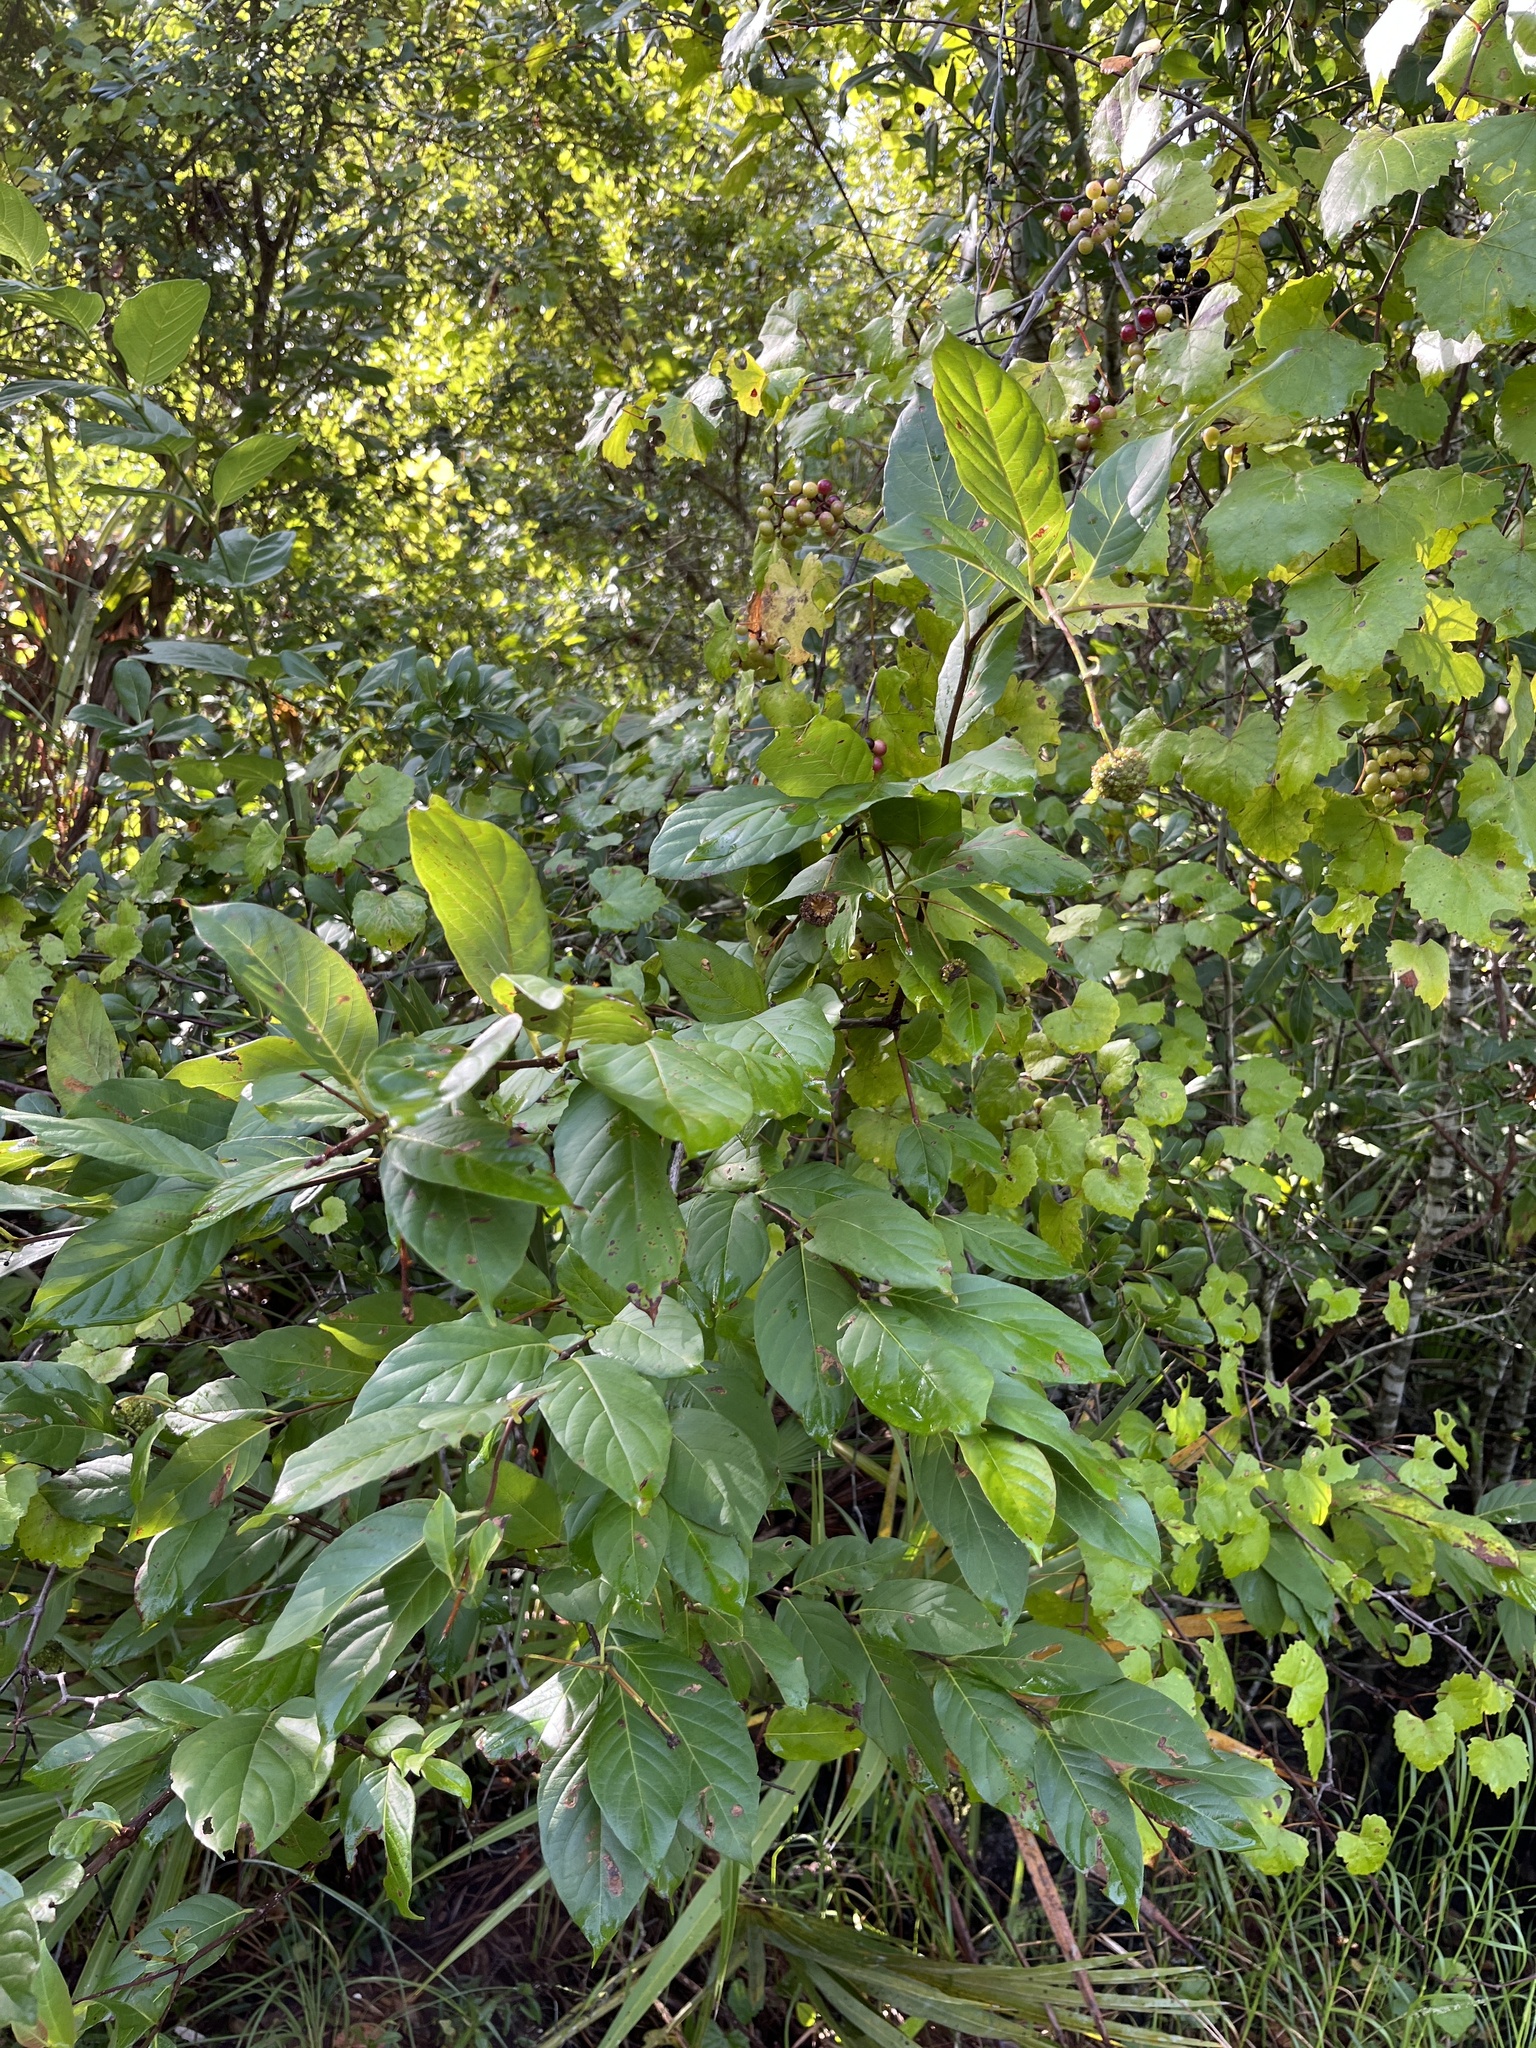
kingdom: Plantae
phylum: Tracheophyta
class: Magnoliopsida
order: Gentianales
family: Rubiaceae
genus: Cephalanthus
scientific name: Cephalanthus occidentalis
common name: Button-willow
